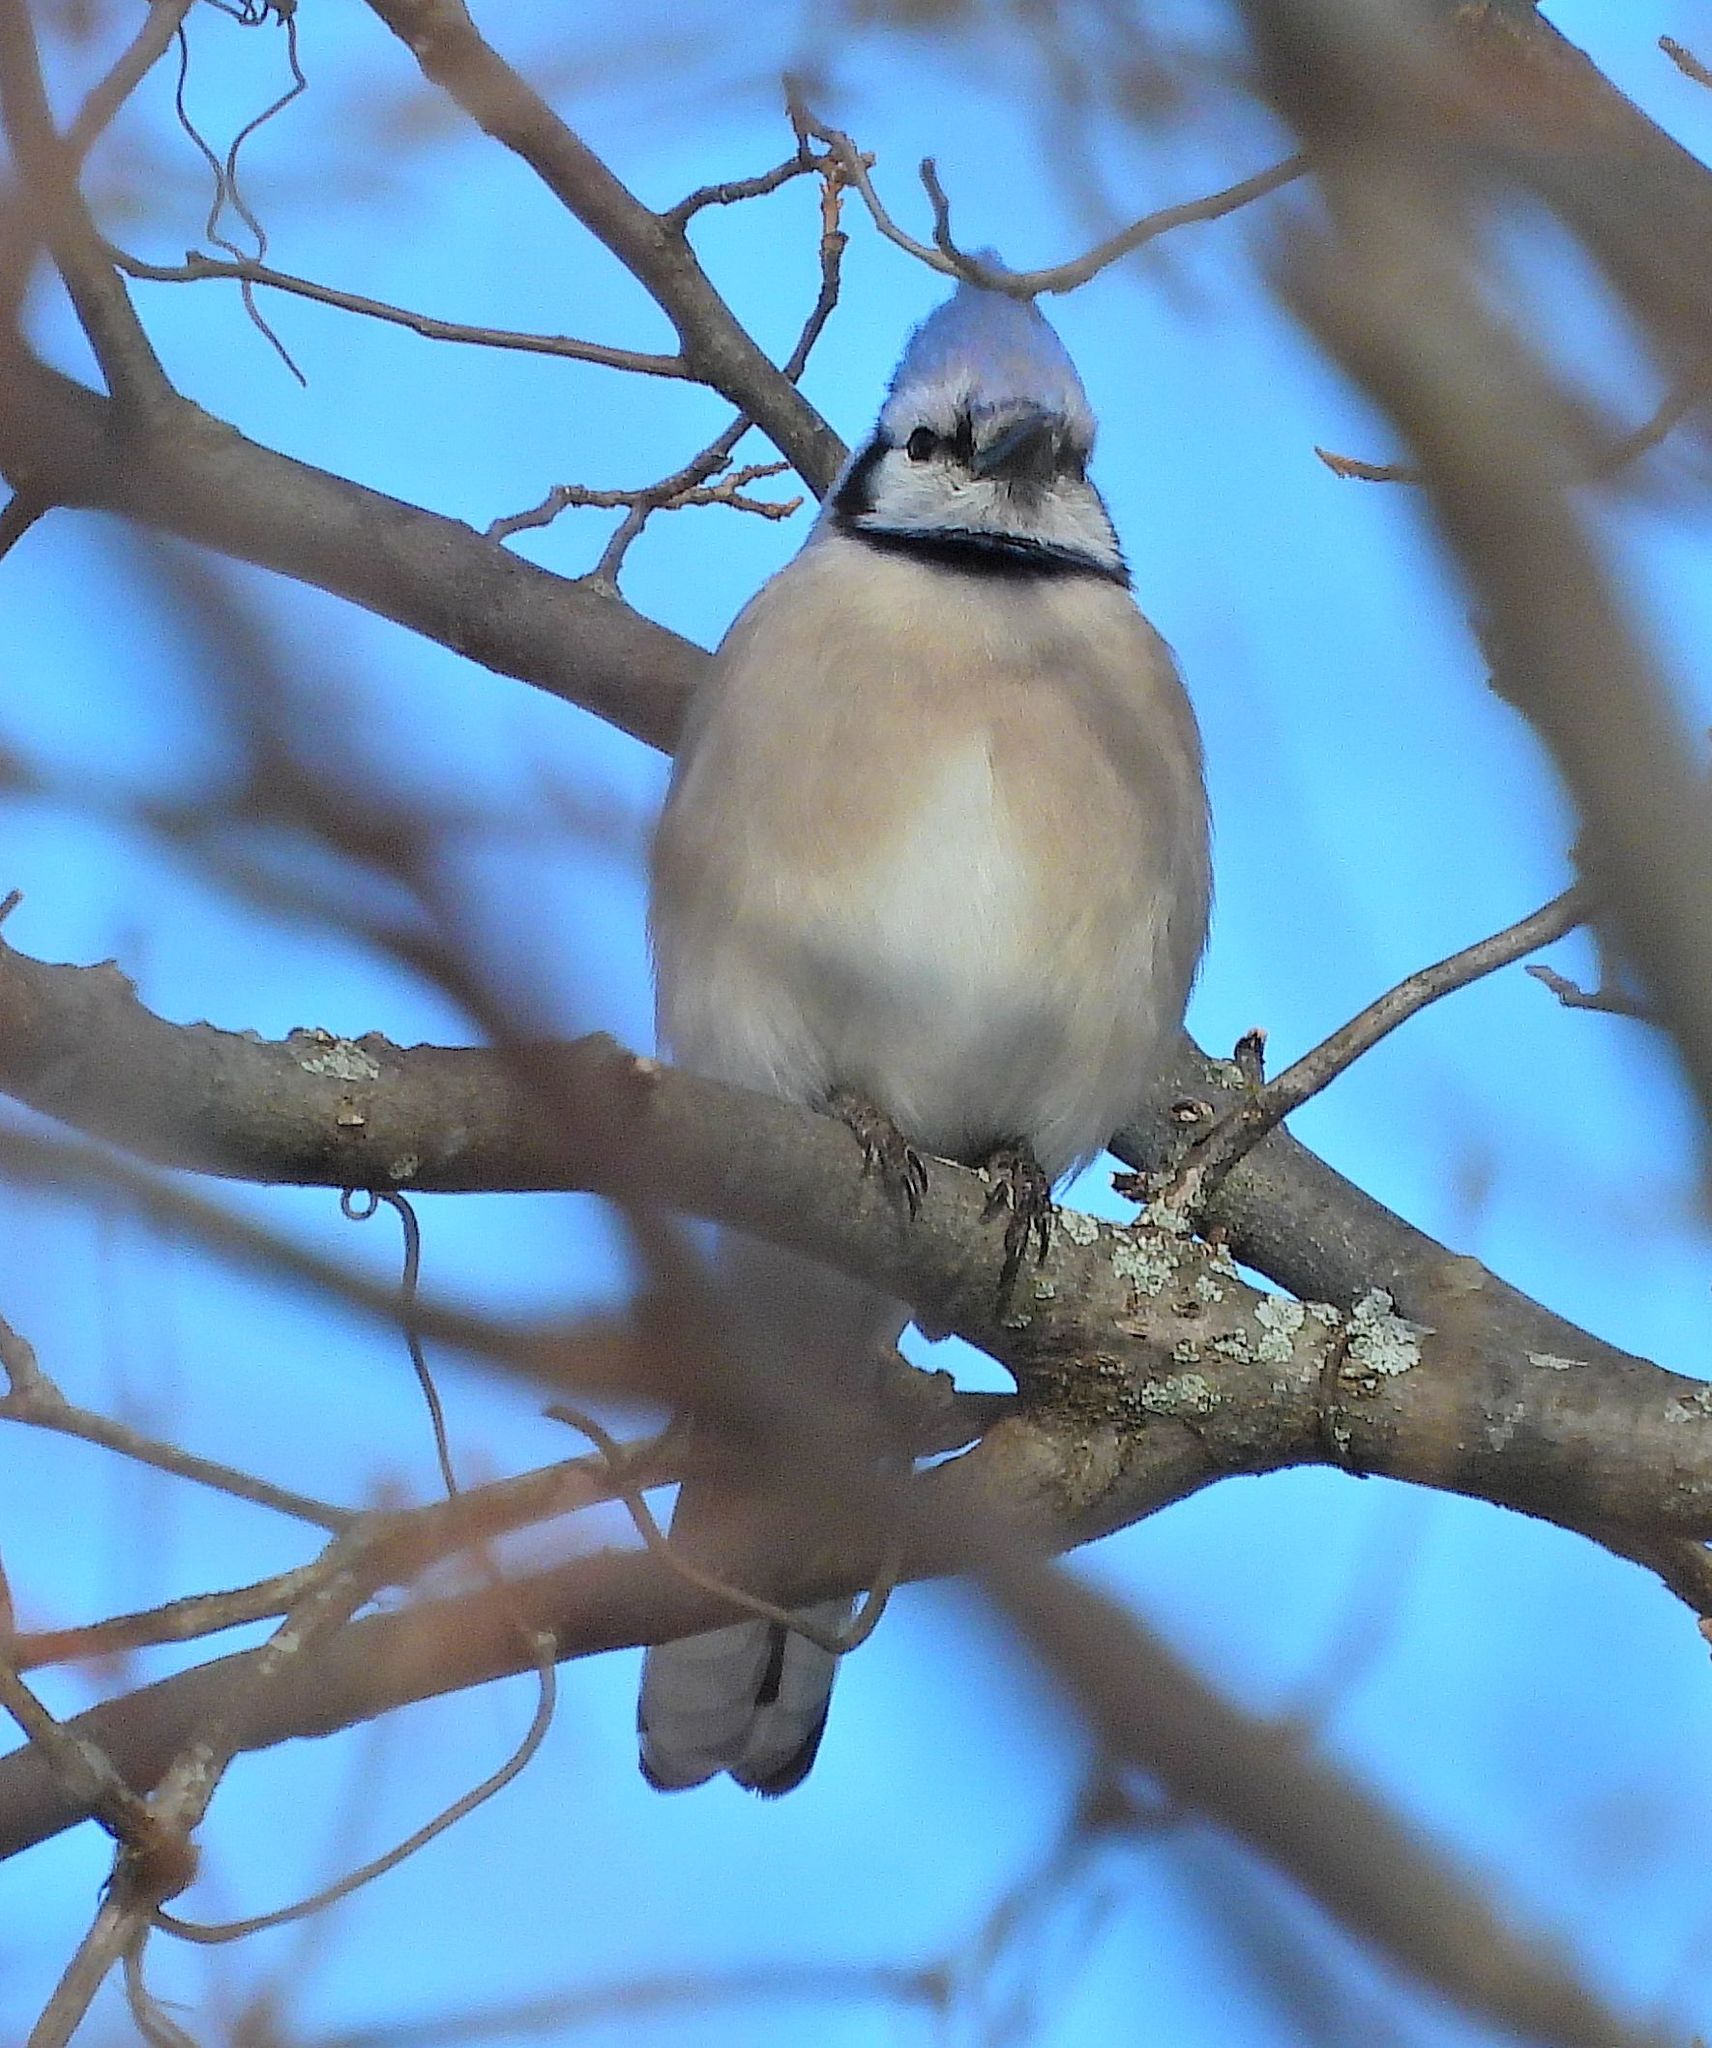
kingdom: Animalia
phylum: Chordata
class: Aves
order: Passeriformes
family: Corvidae
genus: Cyanocitta
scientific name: Cyanocitta cristata
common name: Blue jay
